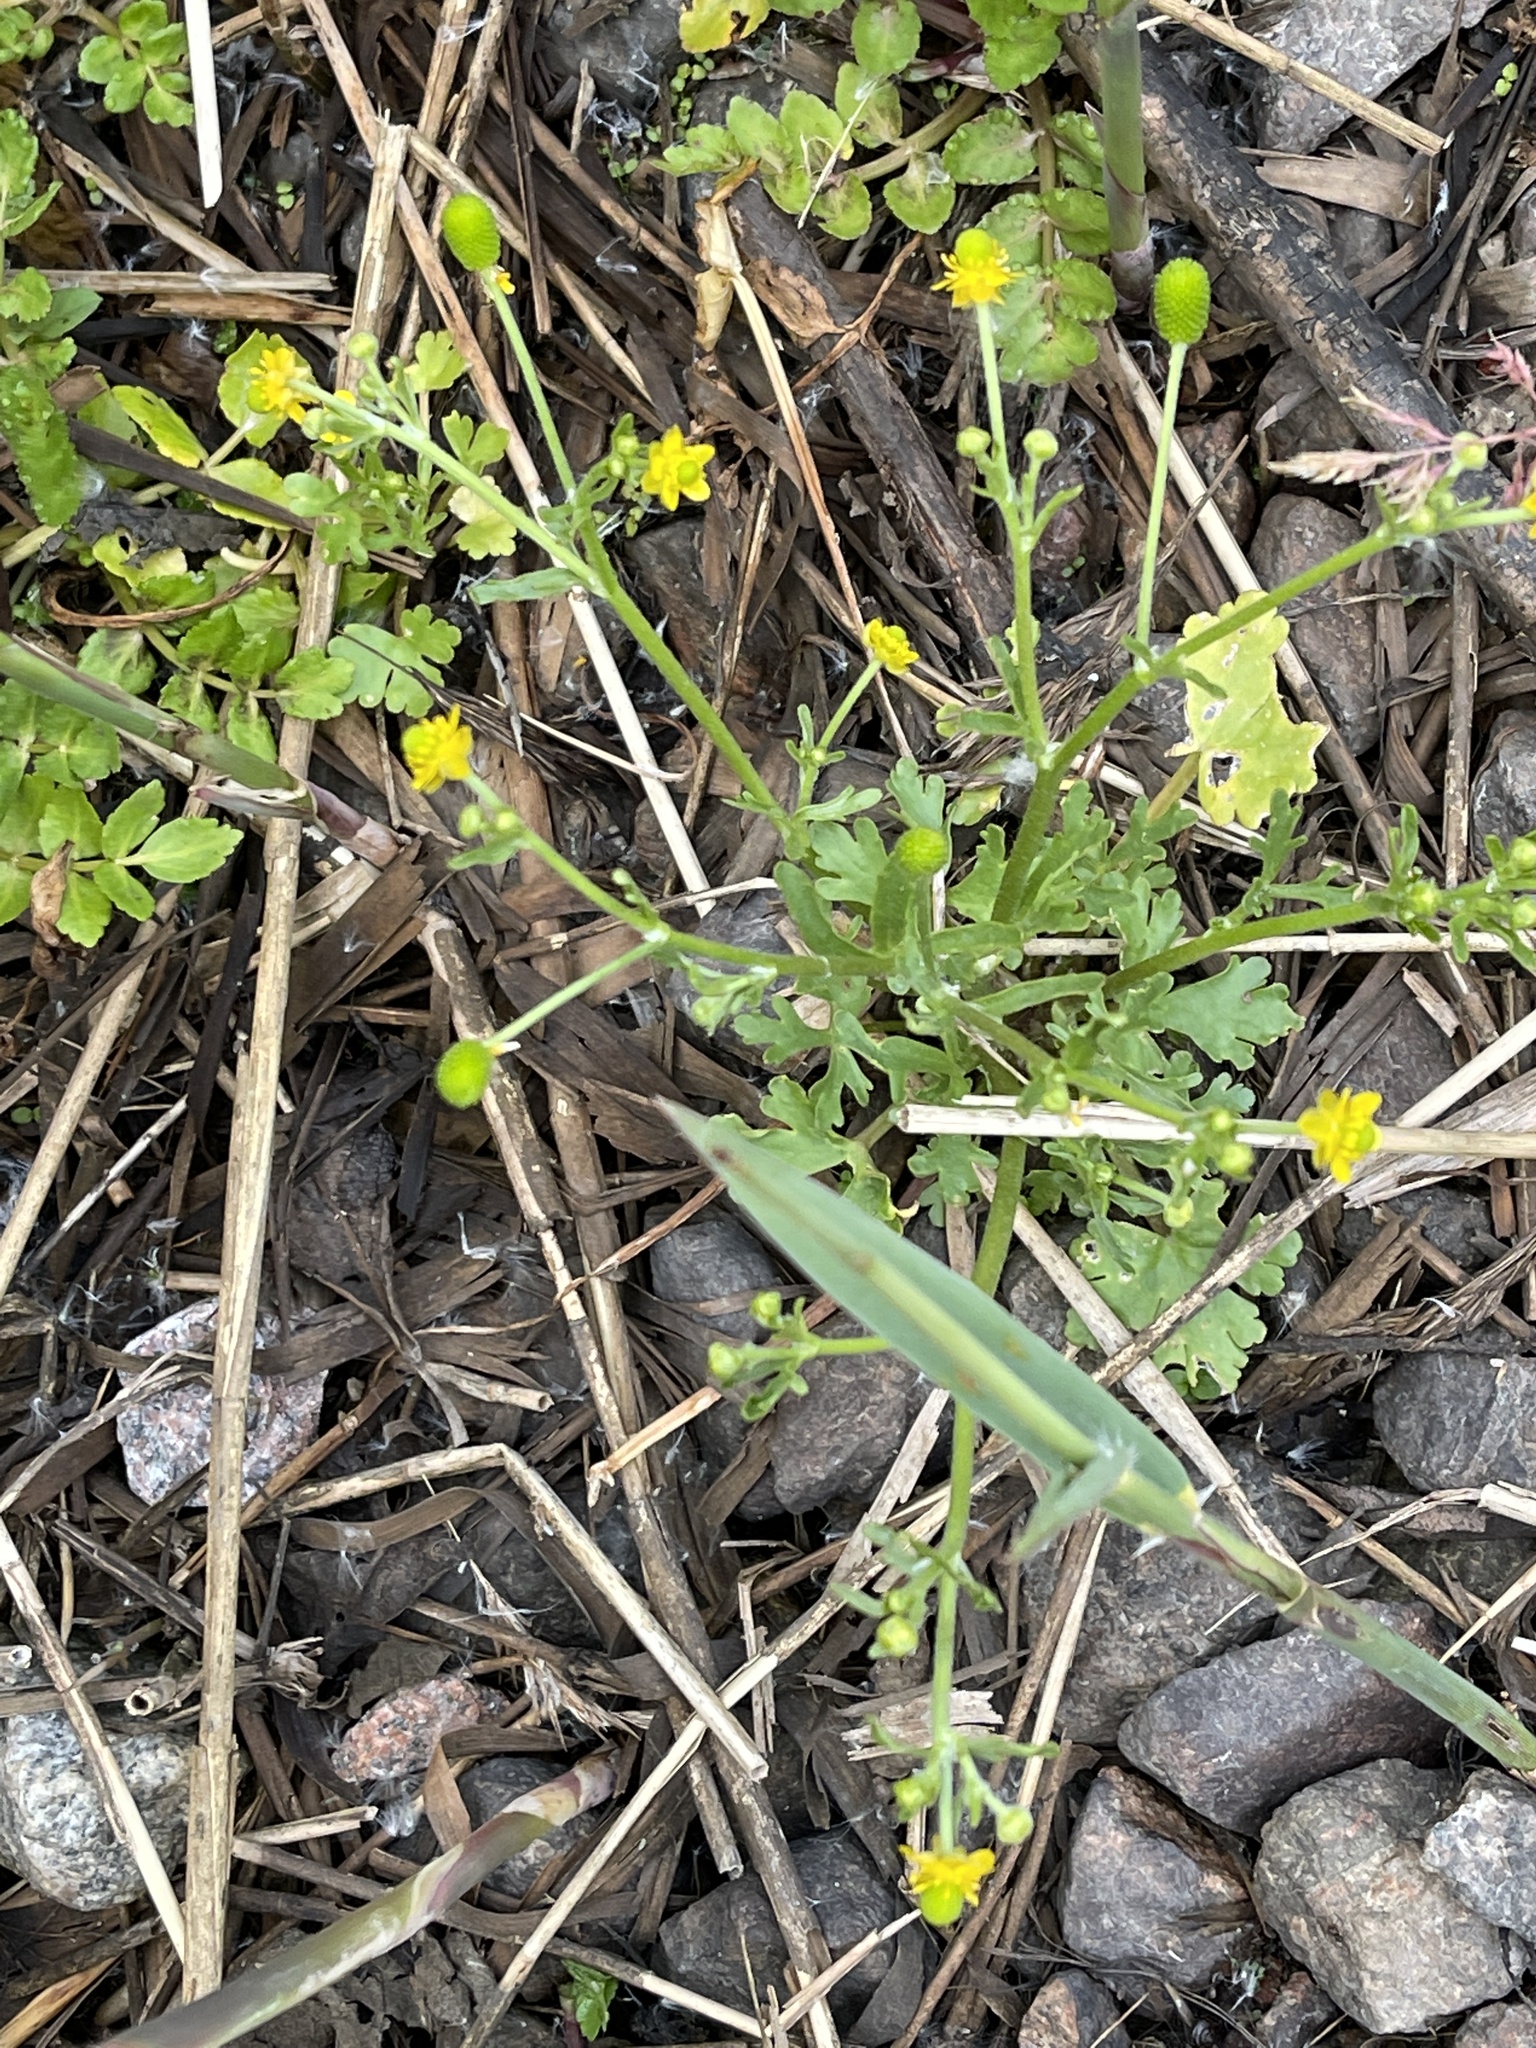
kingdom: Plantae
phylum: Tracheophyta
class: Magnoliopsida
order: Ranunculales
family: Ranunculaceae
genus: Ranunculus
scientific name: Ranunculus sceleratus
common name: Celery-leaved buttercup
